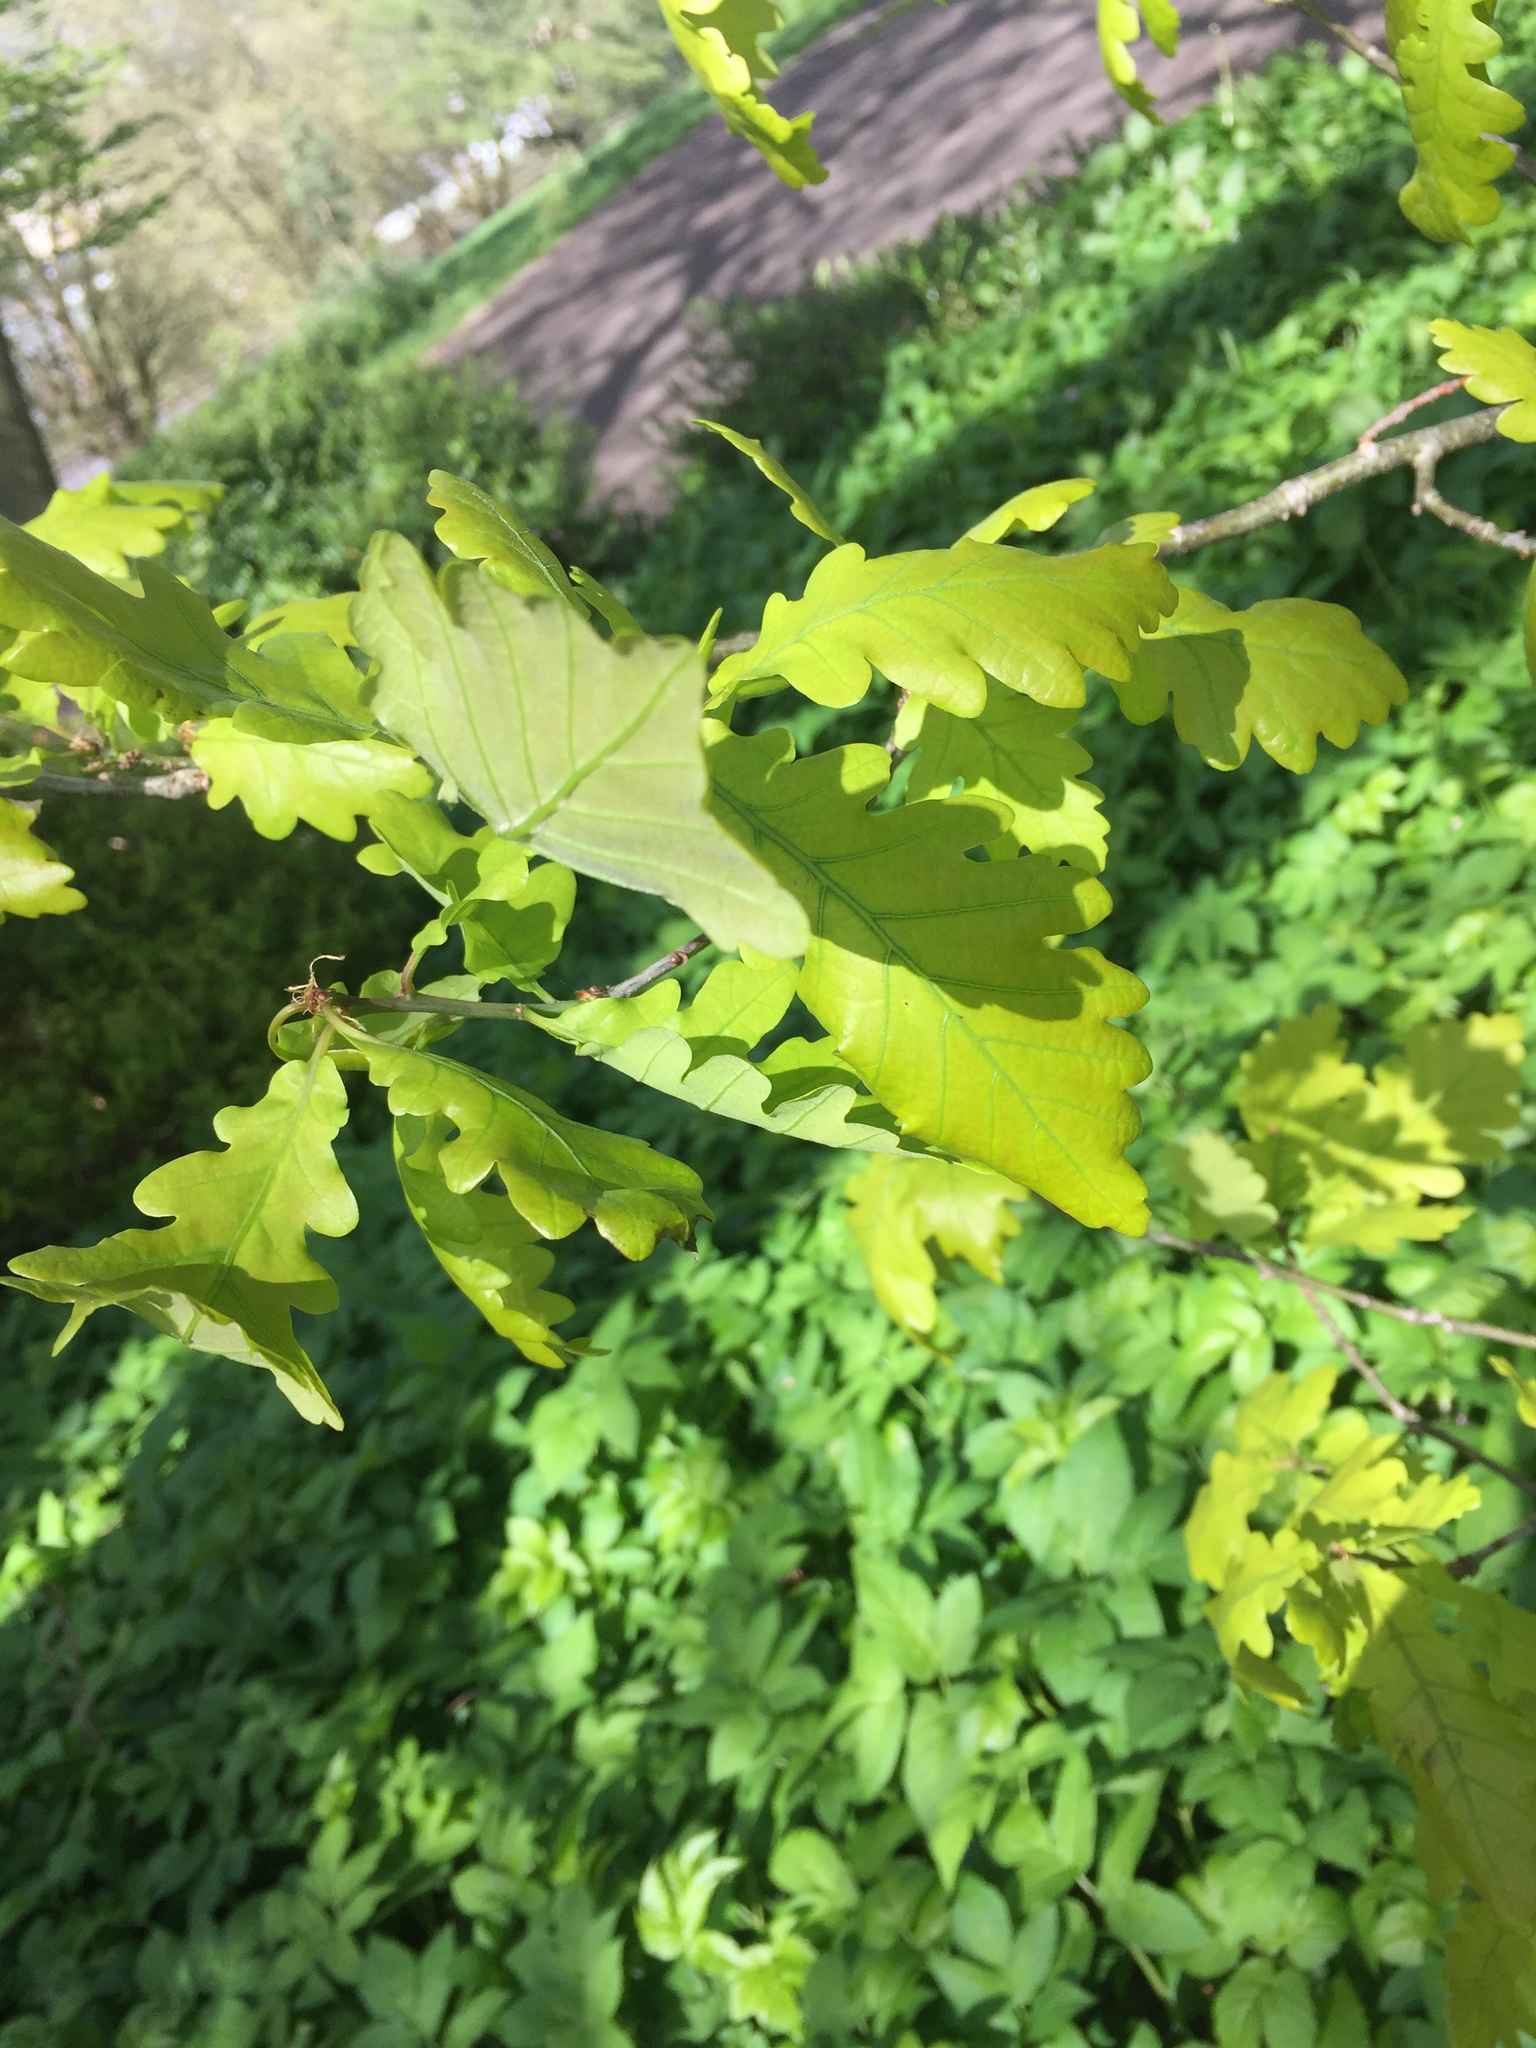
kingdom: Plantae
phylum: Tracheophyta
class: Magnoliopsida
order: Fagales
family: Fagaceae
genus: Quercus
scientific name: Quercus robur
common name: Pedunculate oak
